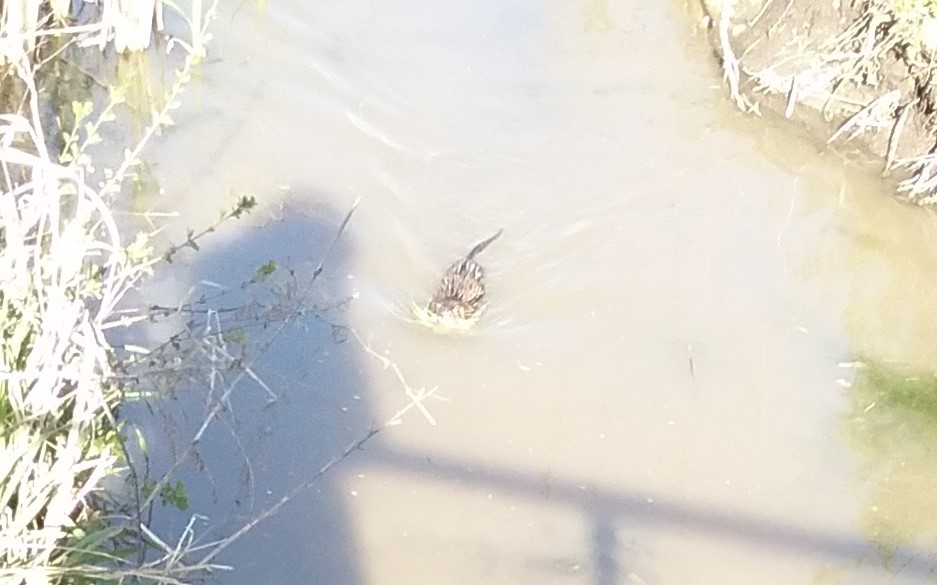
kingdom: Animalia
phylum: Chordata
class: Mammalia
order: Rodentia
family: Cricetidae
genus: Ondatra
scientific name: Ondatra zibethicus
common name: Muskrat
